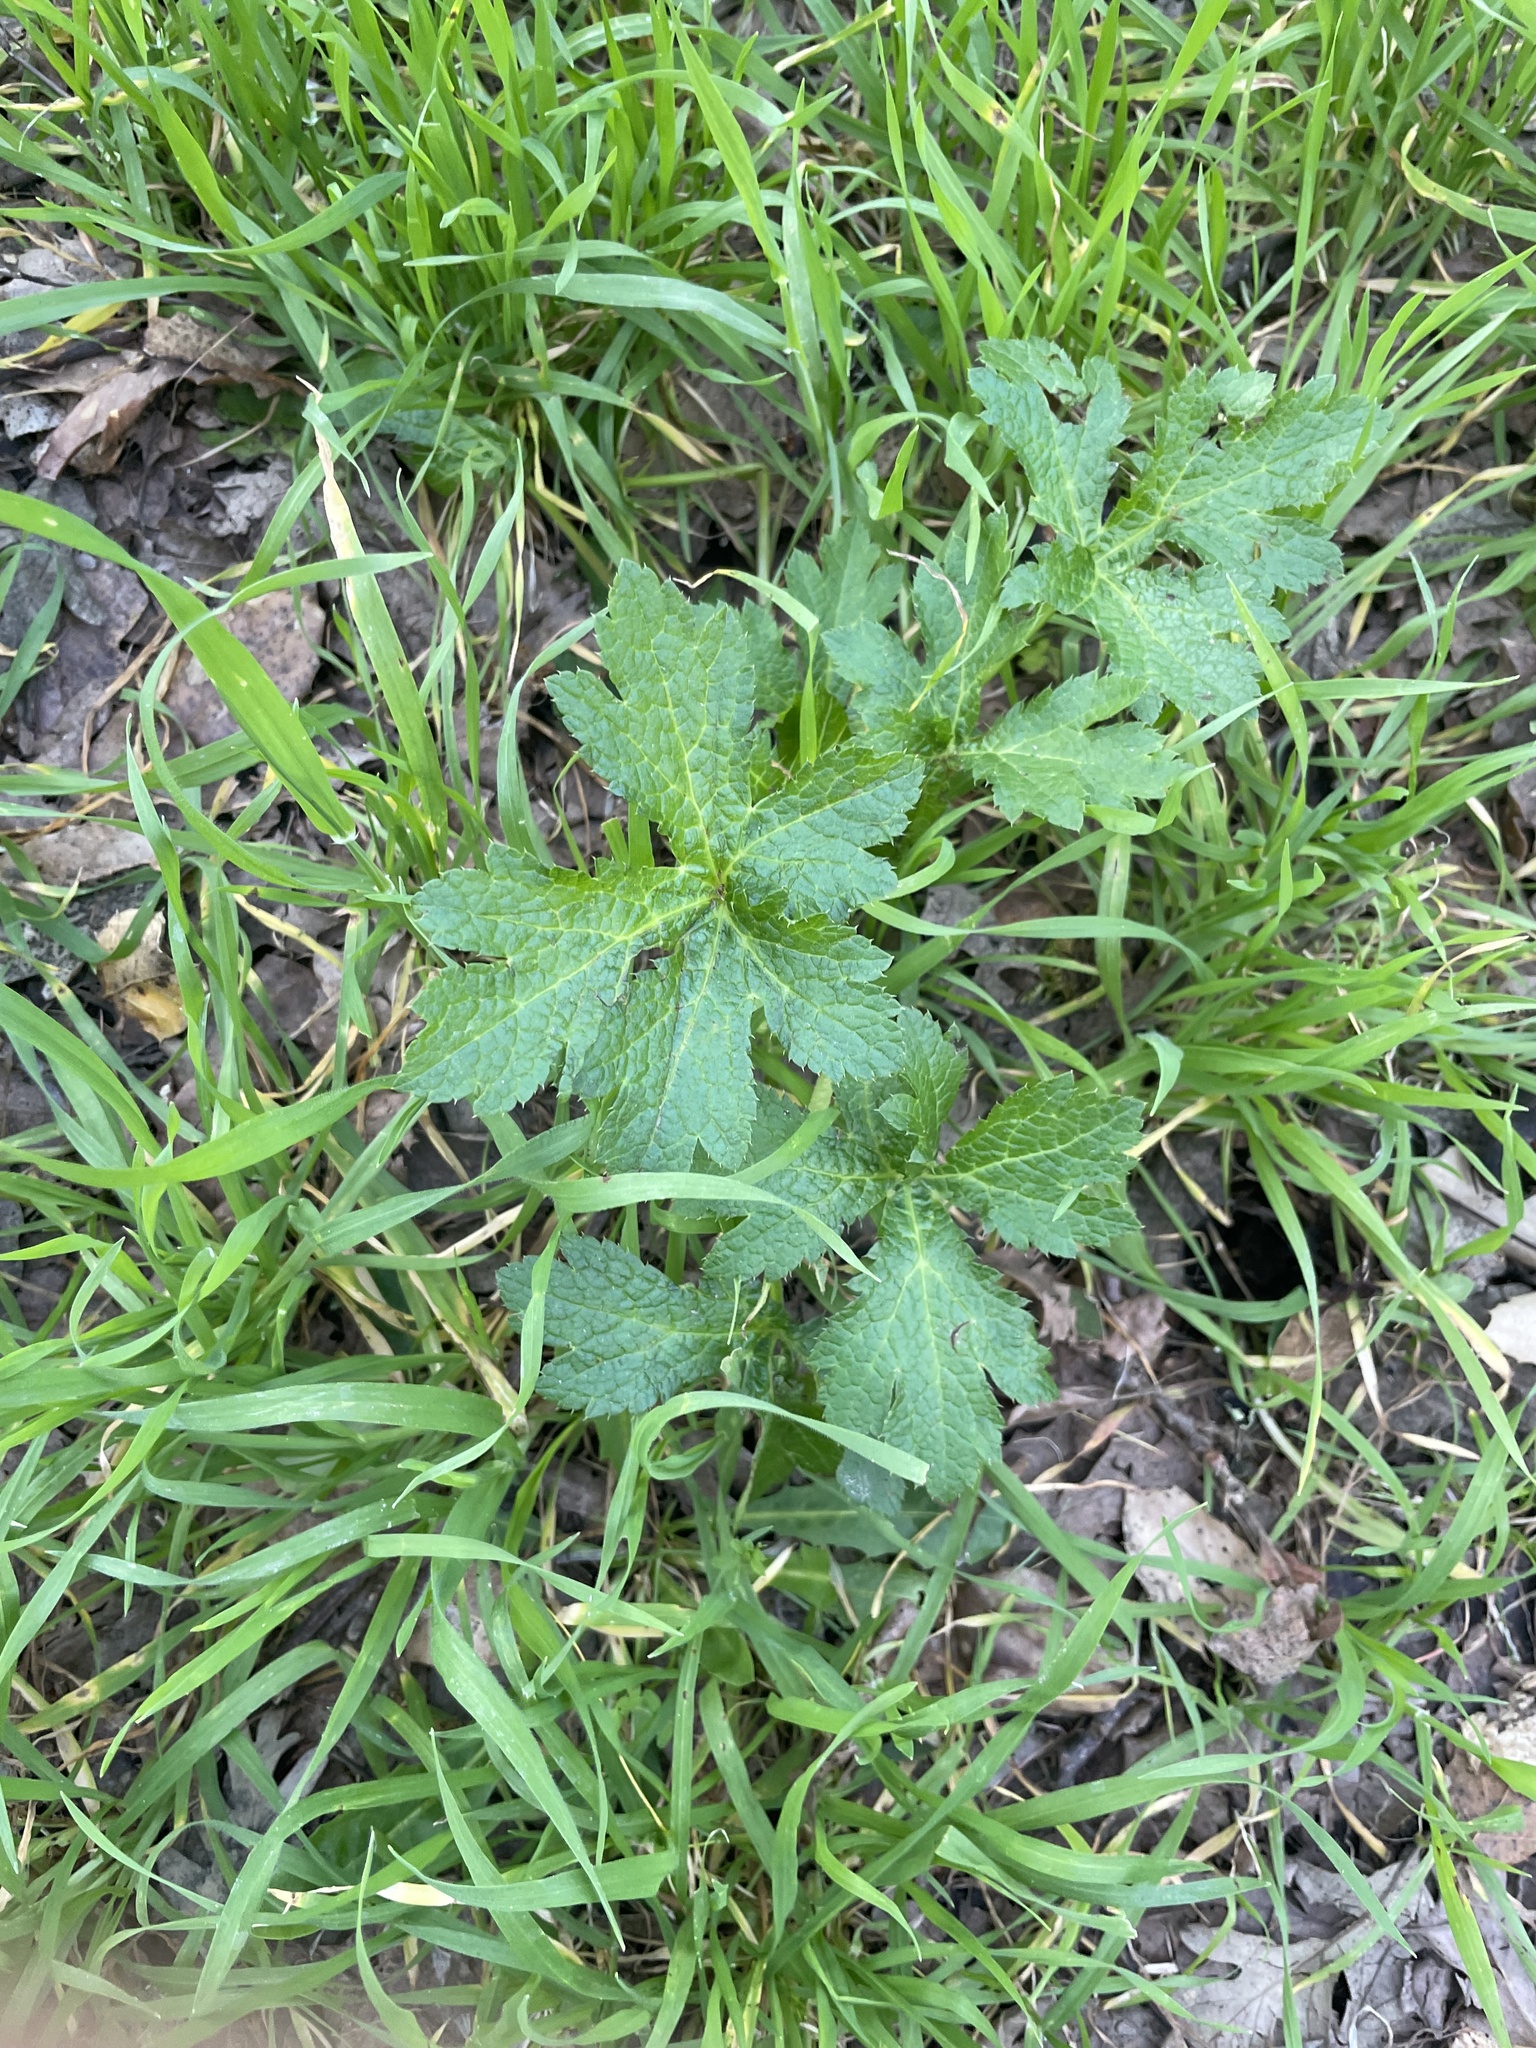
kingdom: Plantae
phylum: Tracheophyta
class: Magnoliopsida
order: Apiales
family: Apiaceae
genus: Sanicula
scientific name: Sanicula crassicaulis
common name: Western snakeroot
